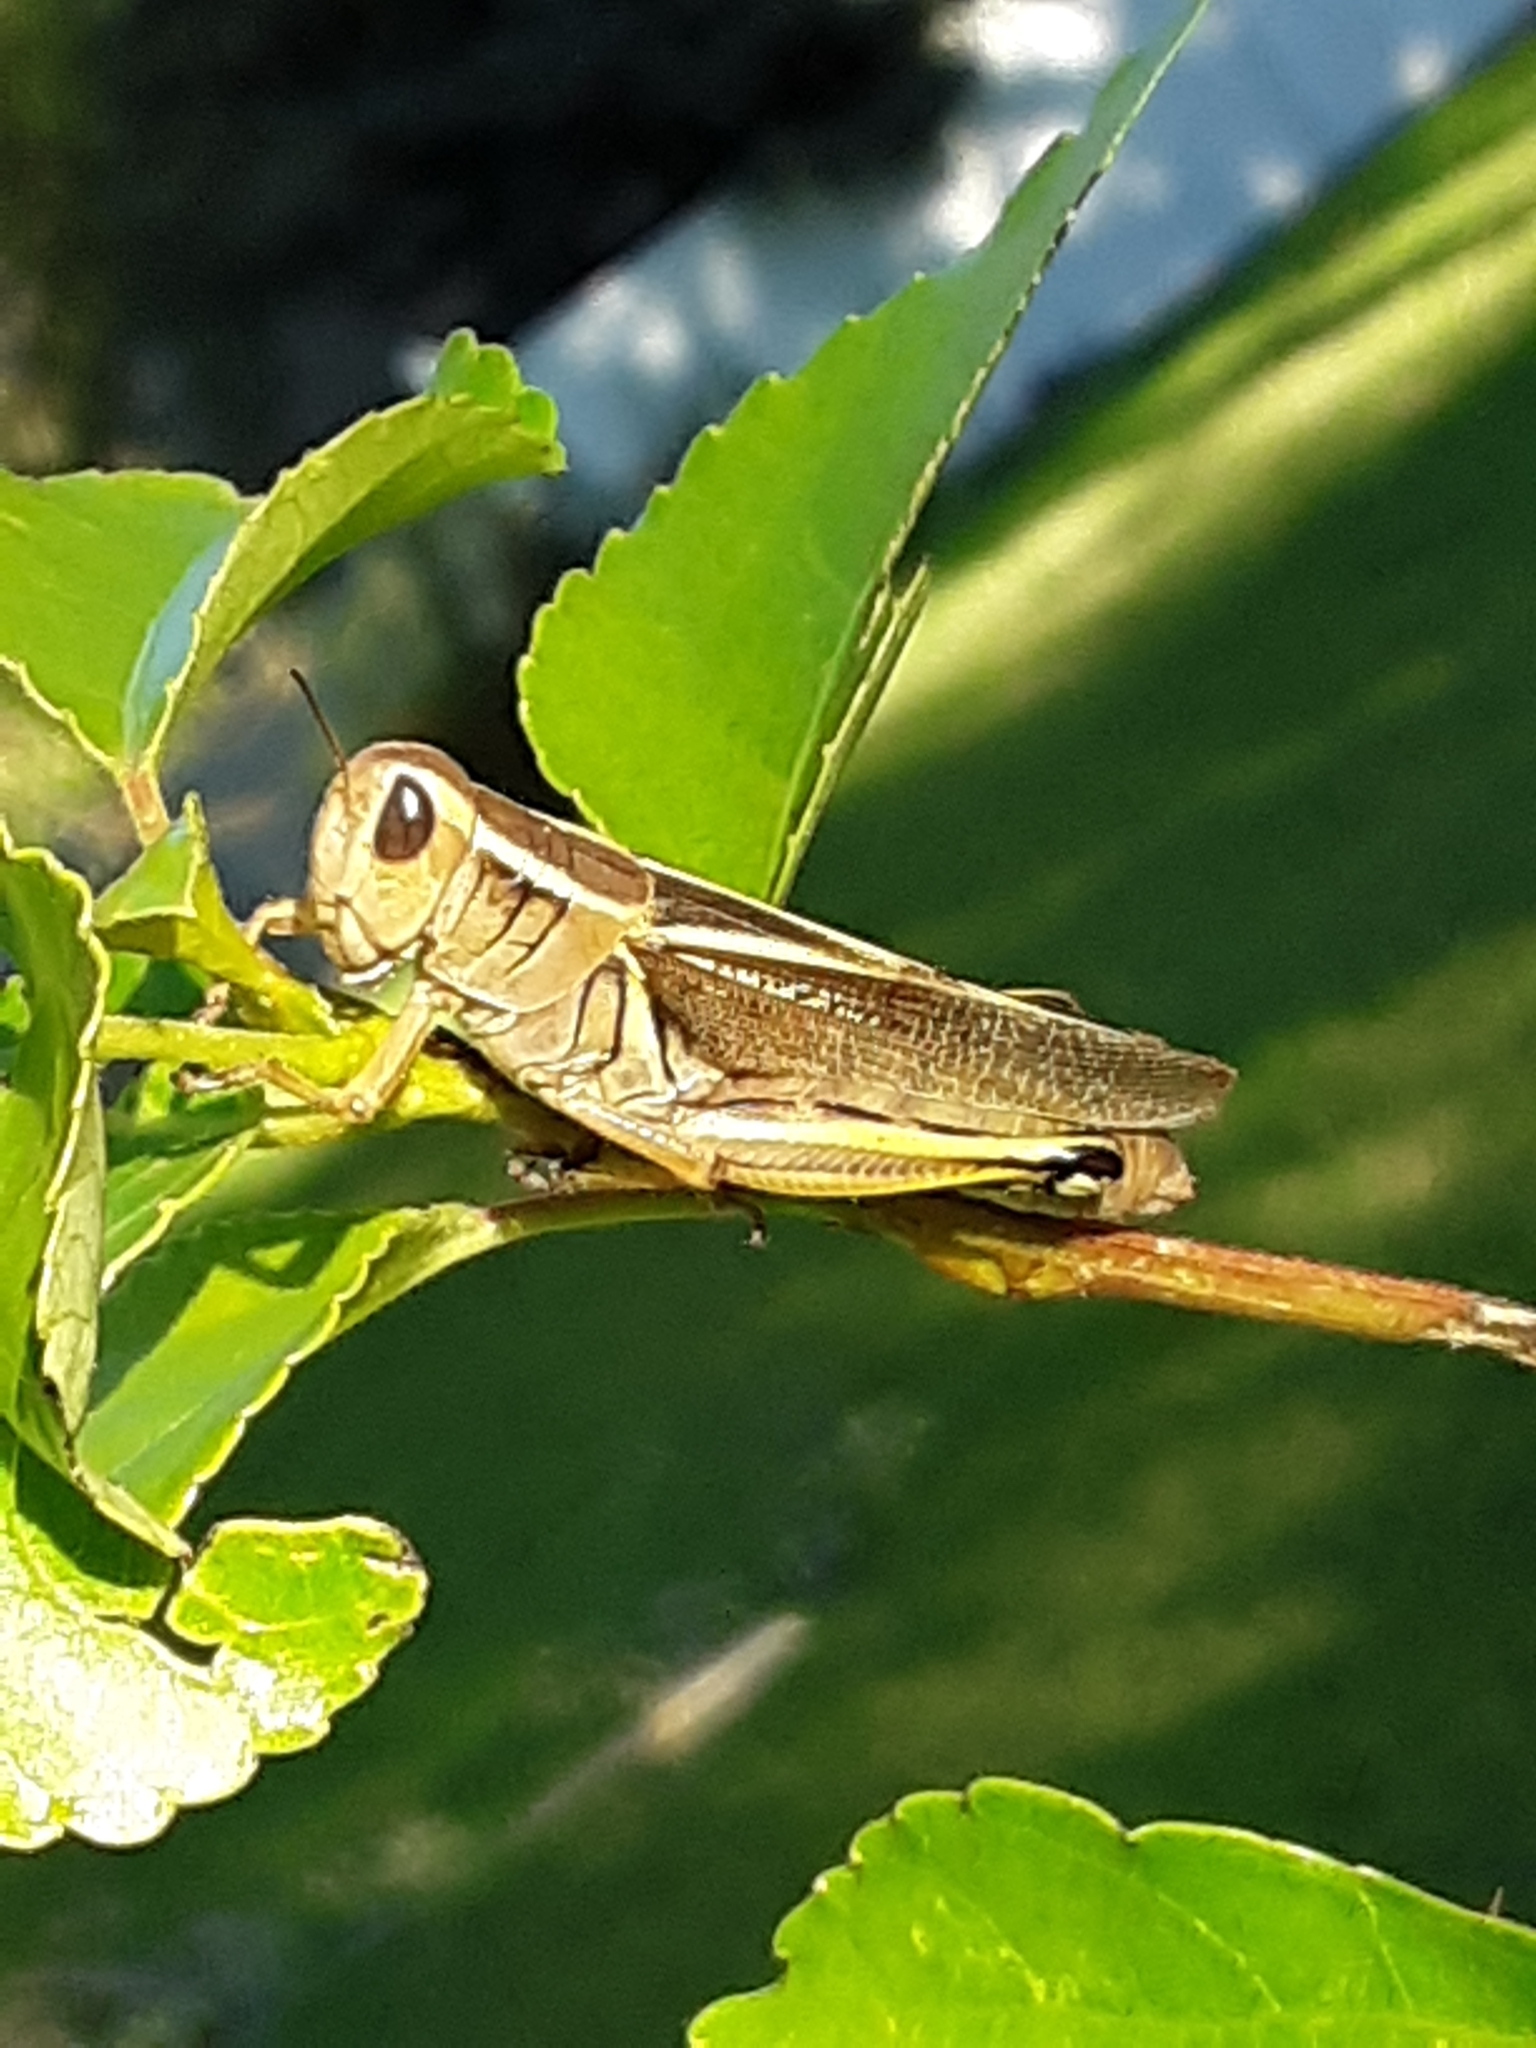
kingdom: Animalia
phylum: Arthropoda
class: Insecta
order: Orthoptera
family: Acrididae
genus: Melanoplus
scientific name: Melanoplus bivittatus
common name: Two-striped grasshopper
